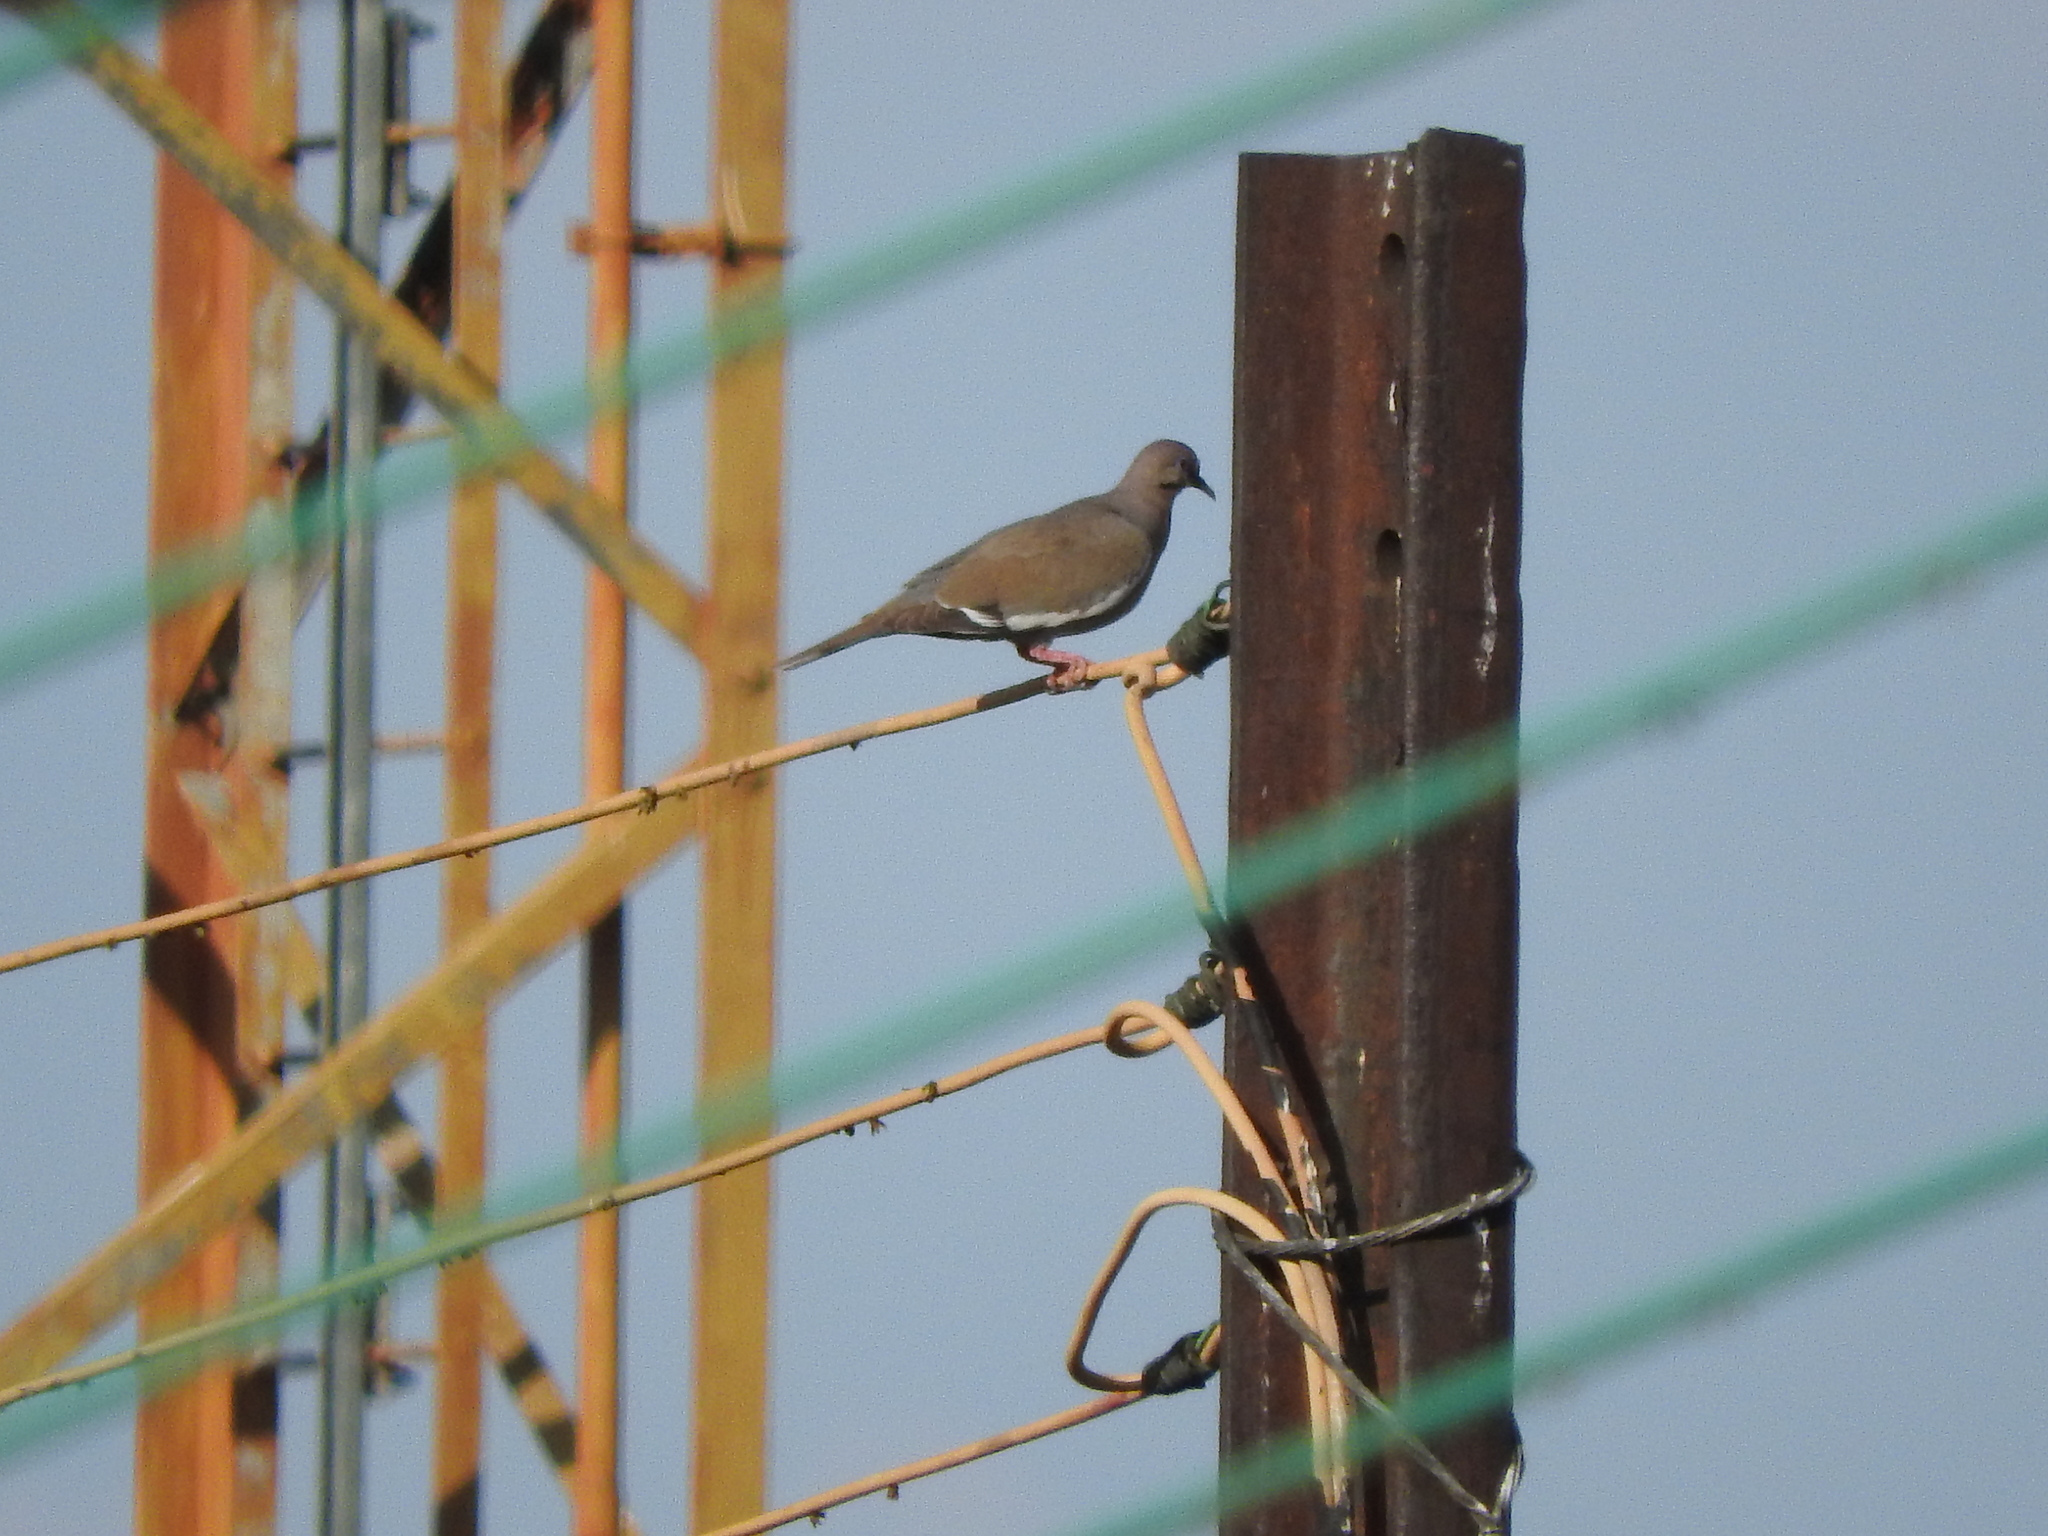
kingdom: Animalia
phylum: Chordata
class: Aves
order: Columbiformes
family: Columbidae
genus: Zenaida
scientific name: Zenaida asiatica
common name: White-winged dove
